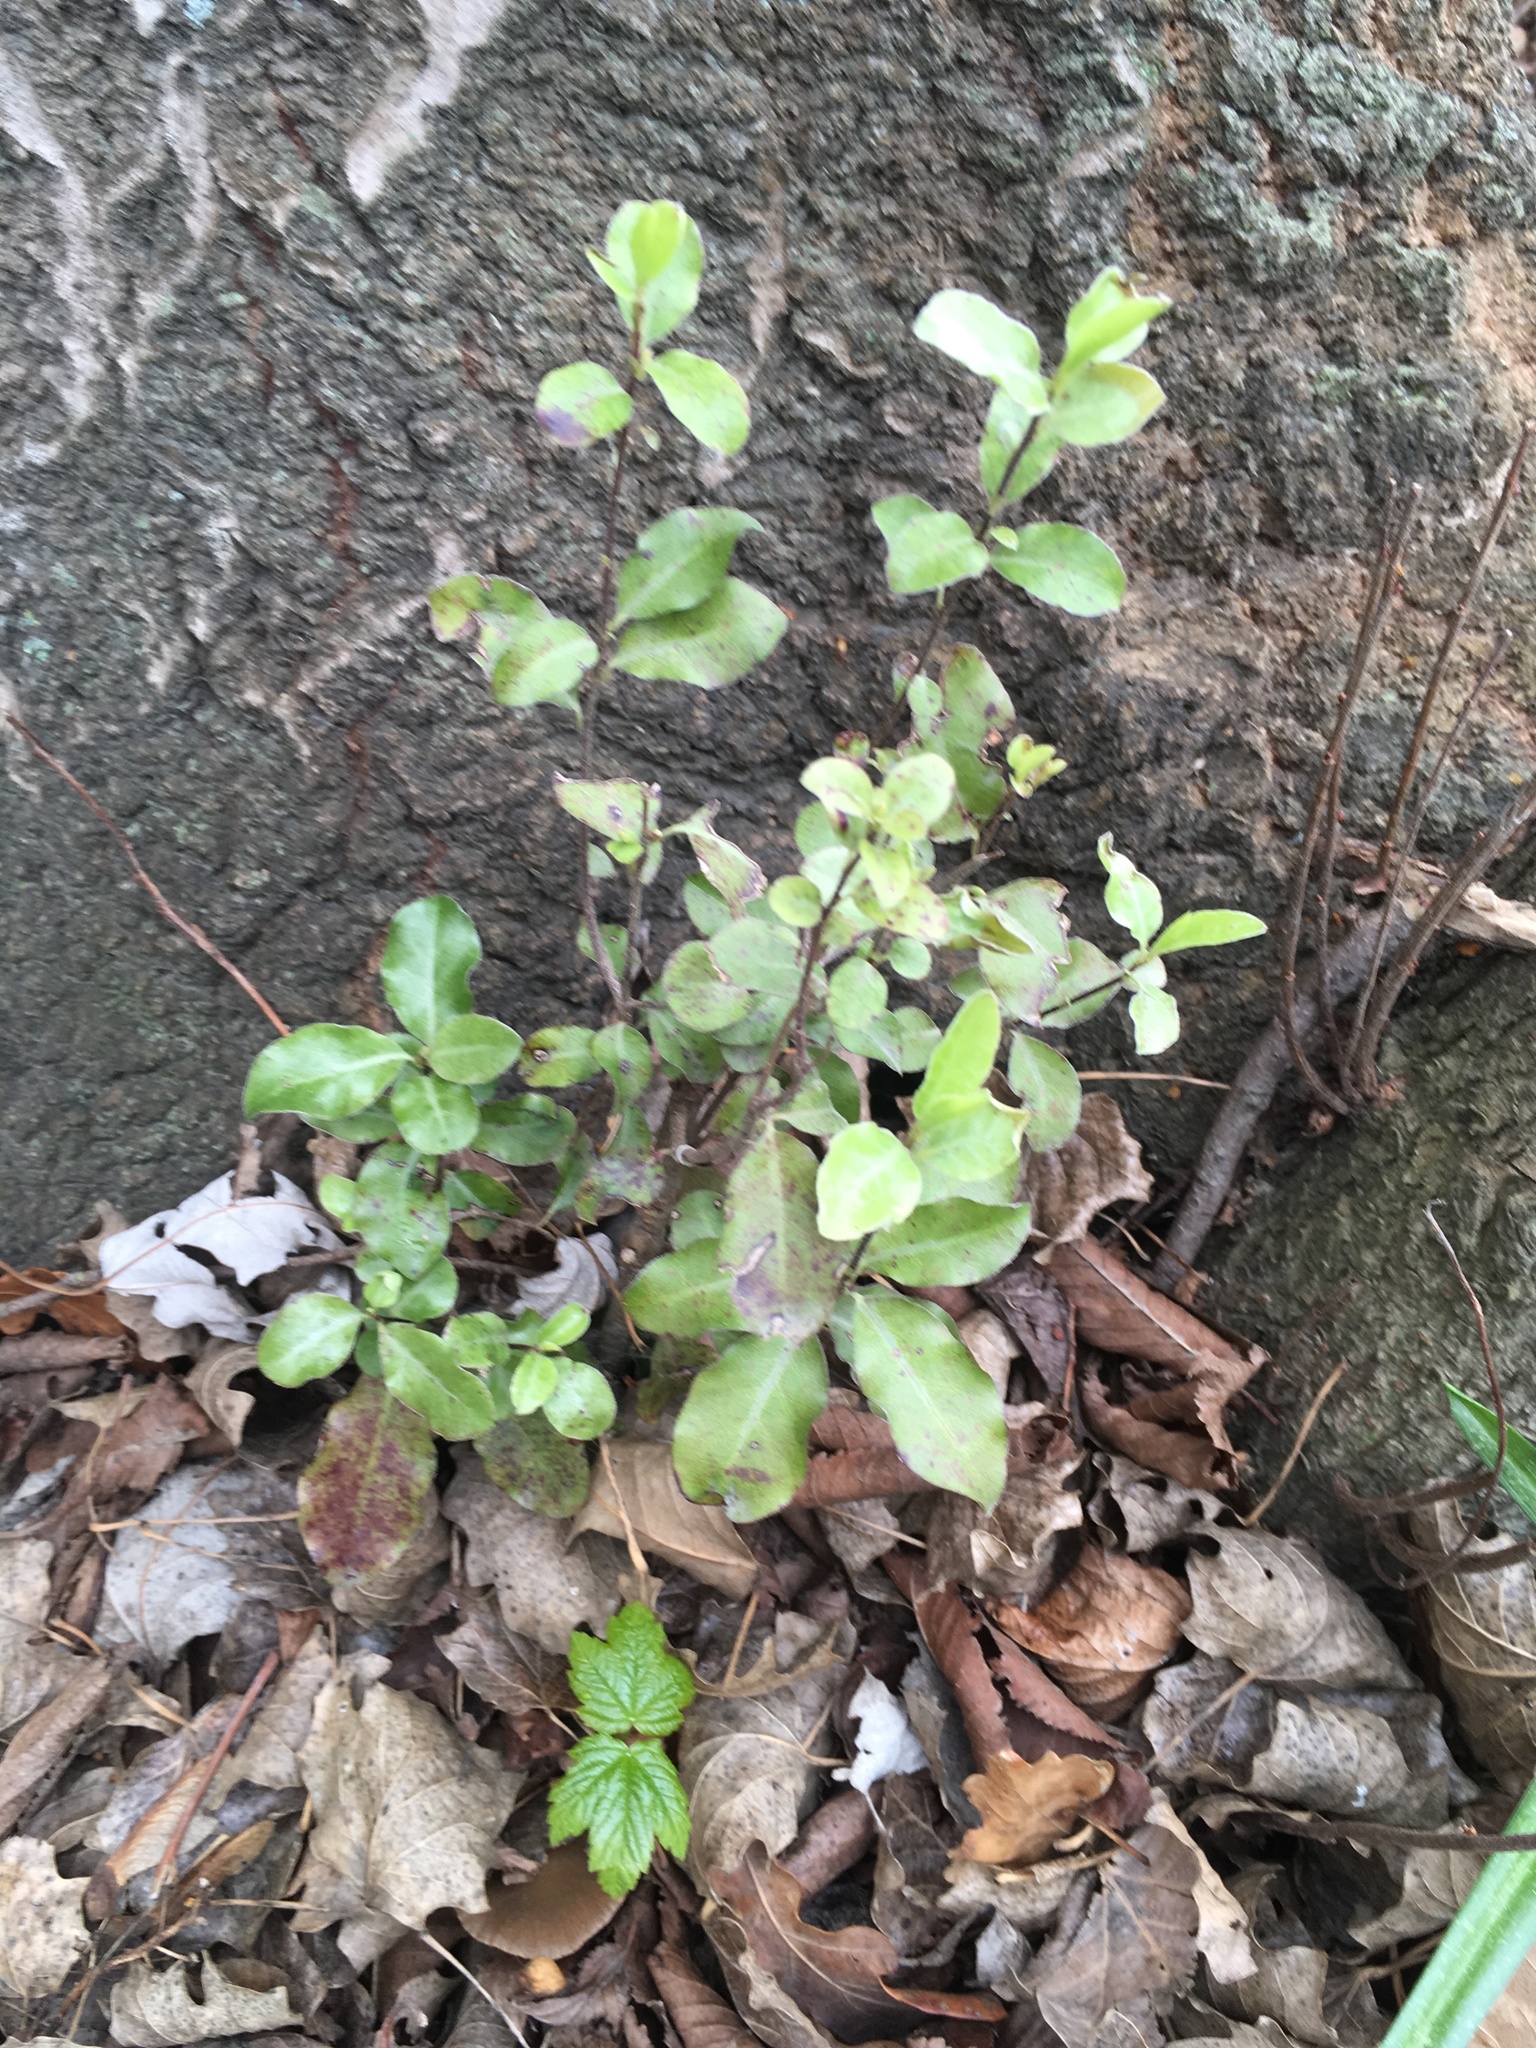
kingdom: Plantae
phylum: Tracheophyta
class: Magnoliopsida
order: Apiales
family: Pittosporaceae
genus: Pittosporum
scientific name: Pittosporum tenuifolium
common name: Kohuhu
